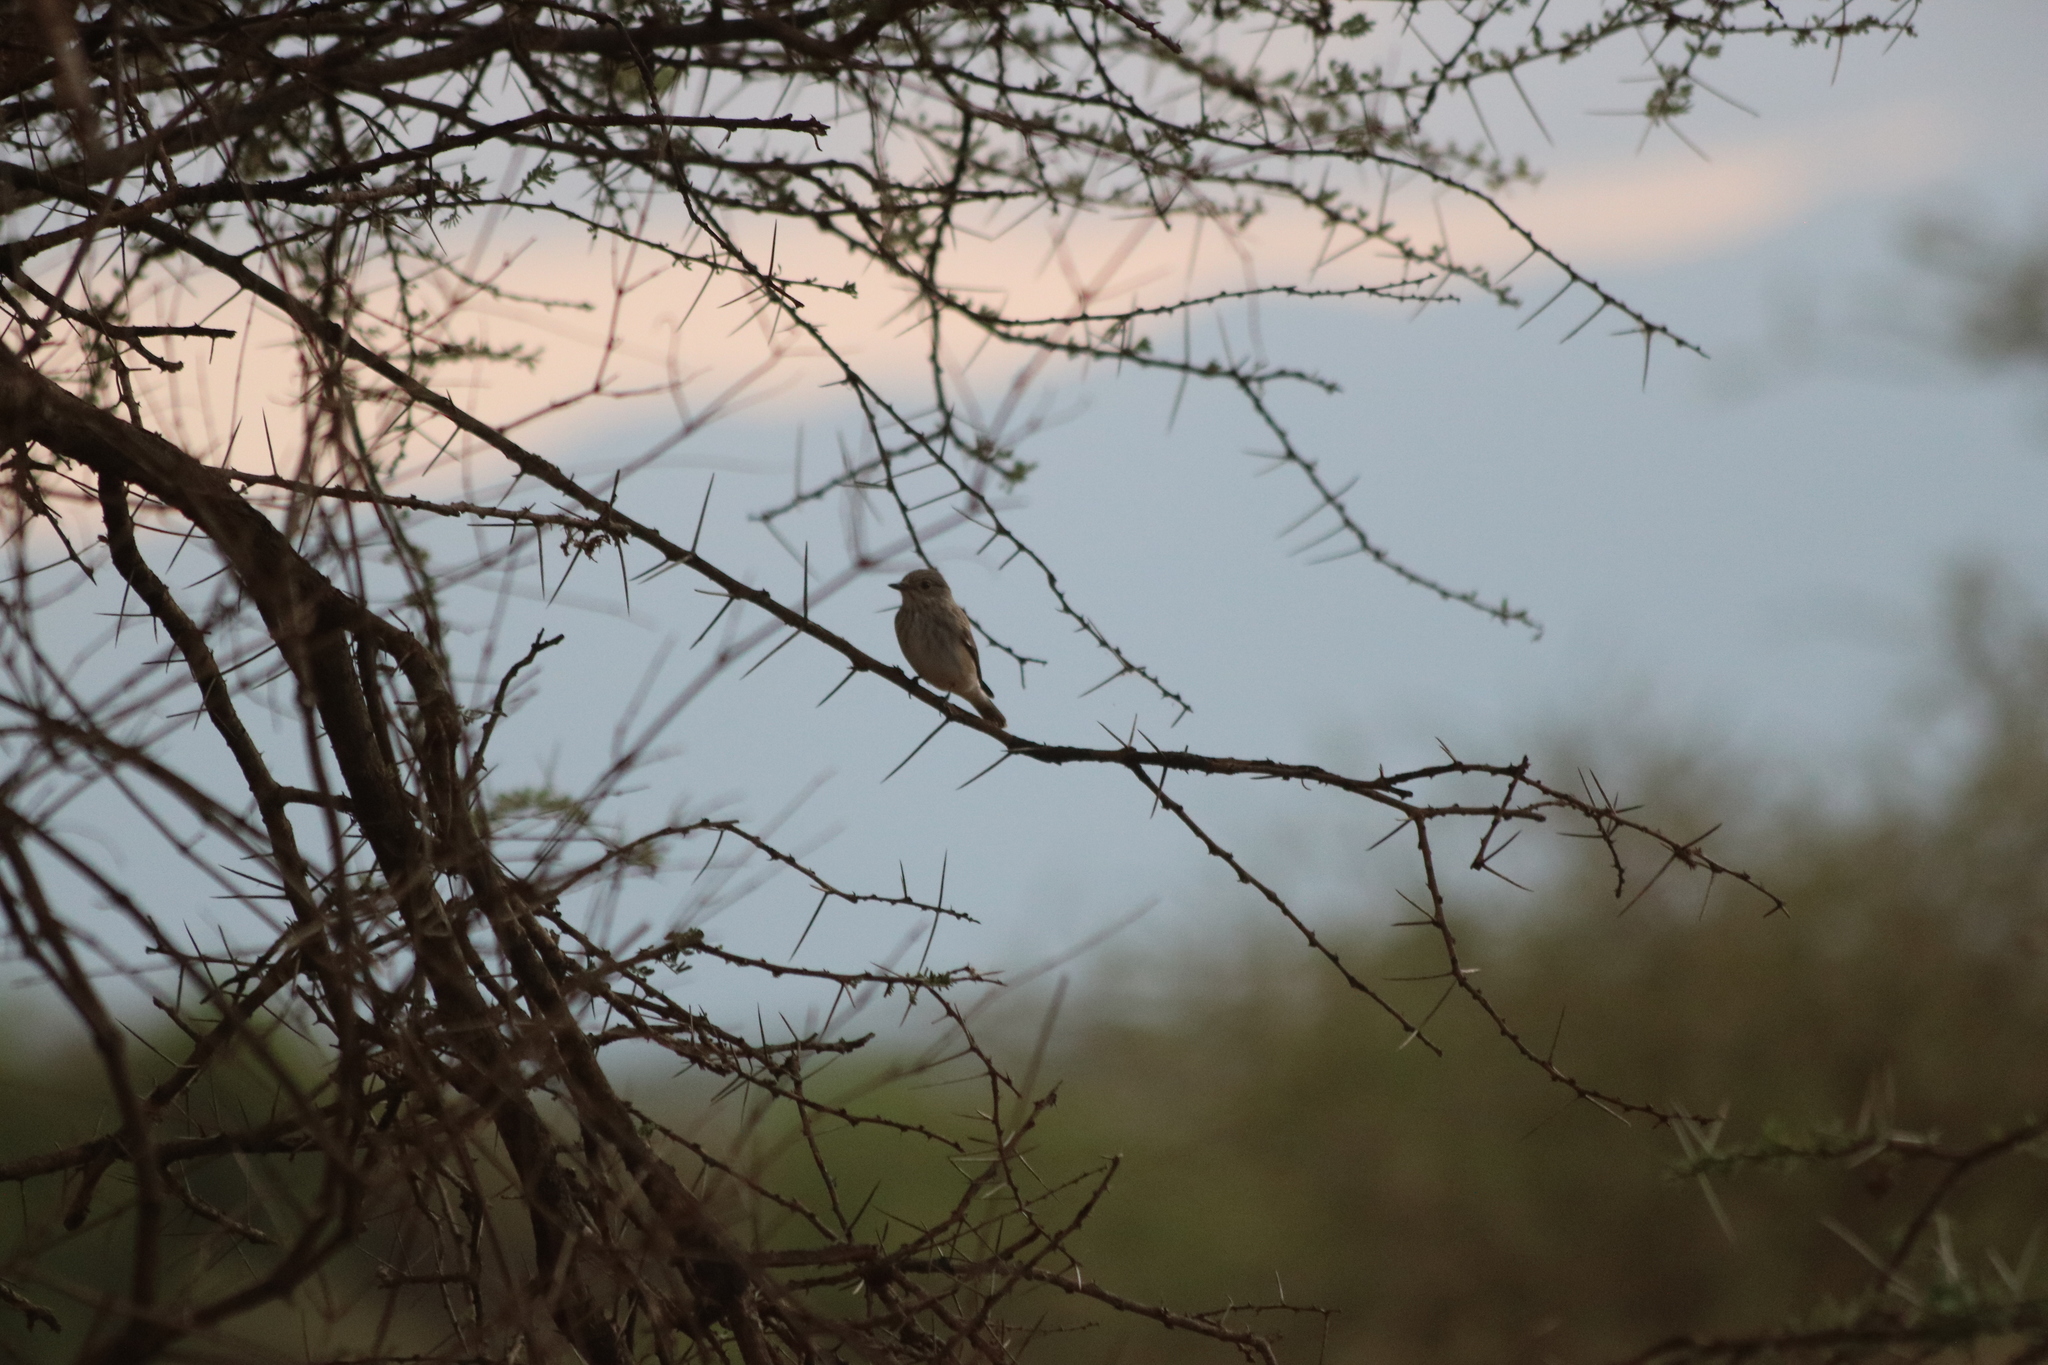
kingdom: Animalia
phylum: Chordata
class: Aves
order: Passeriformes
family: Muscicapidae
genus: Muscicapa
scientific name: Muscicapa striata
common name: Spotted flycatcher
